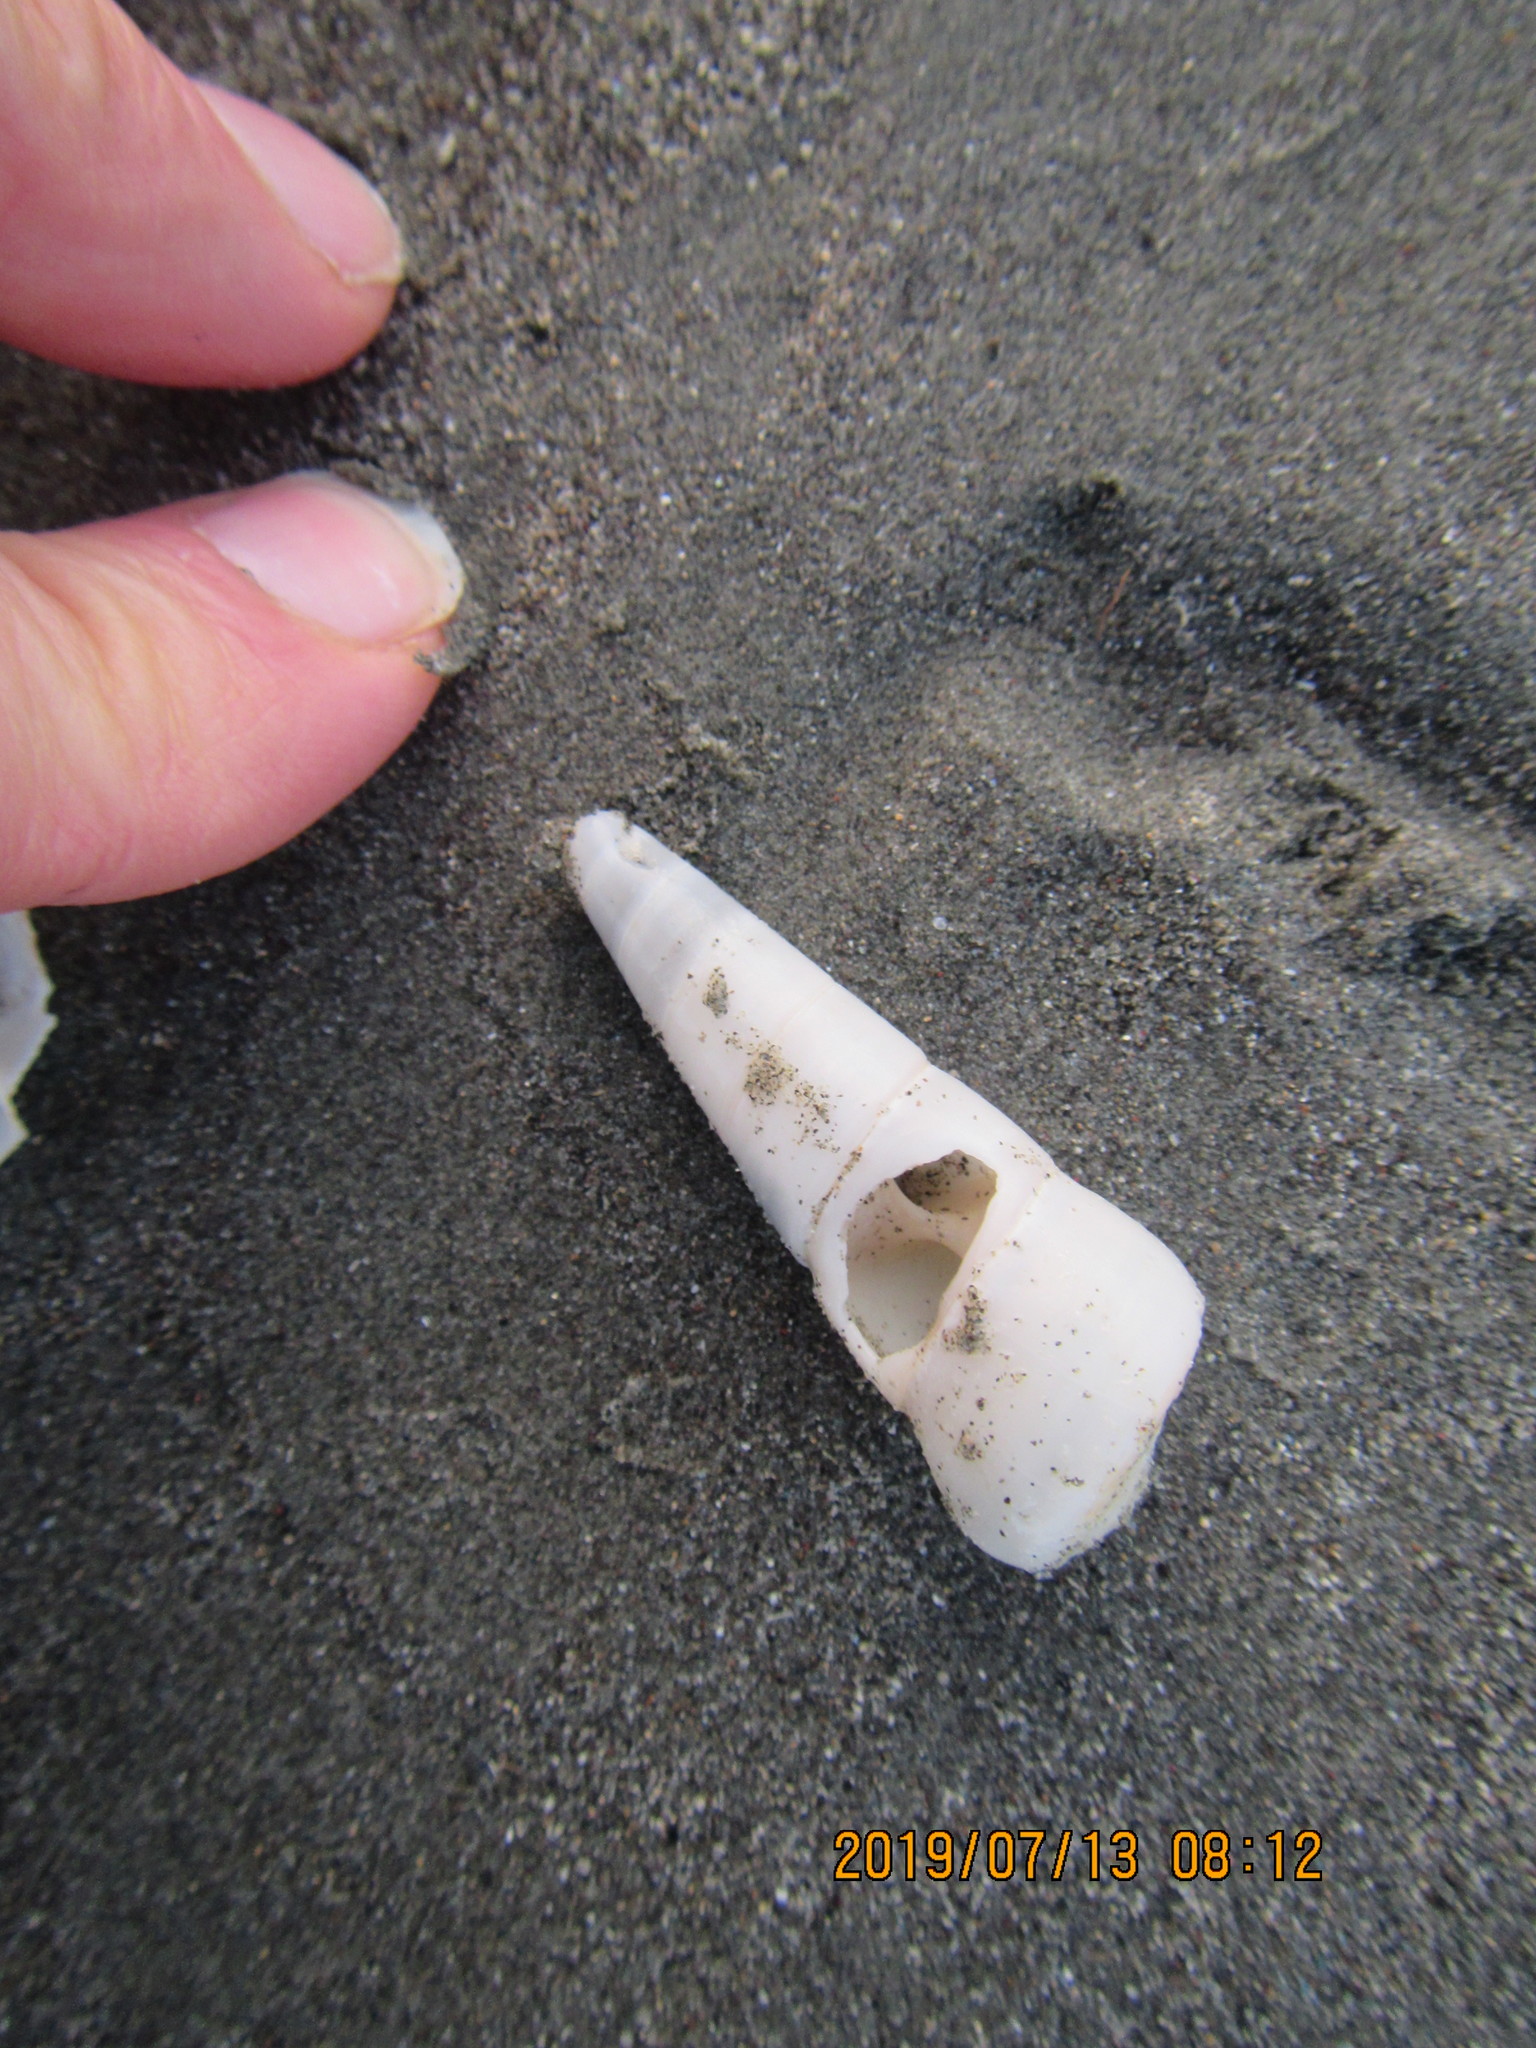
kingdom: Animalia
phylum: Mollusca
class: Gastropoda
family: Turritellidae
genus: Maoricolpus
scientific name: Maoricolpus roseus
